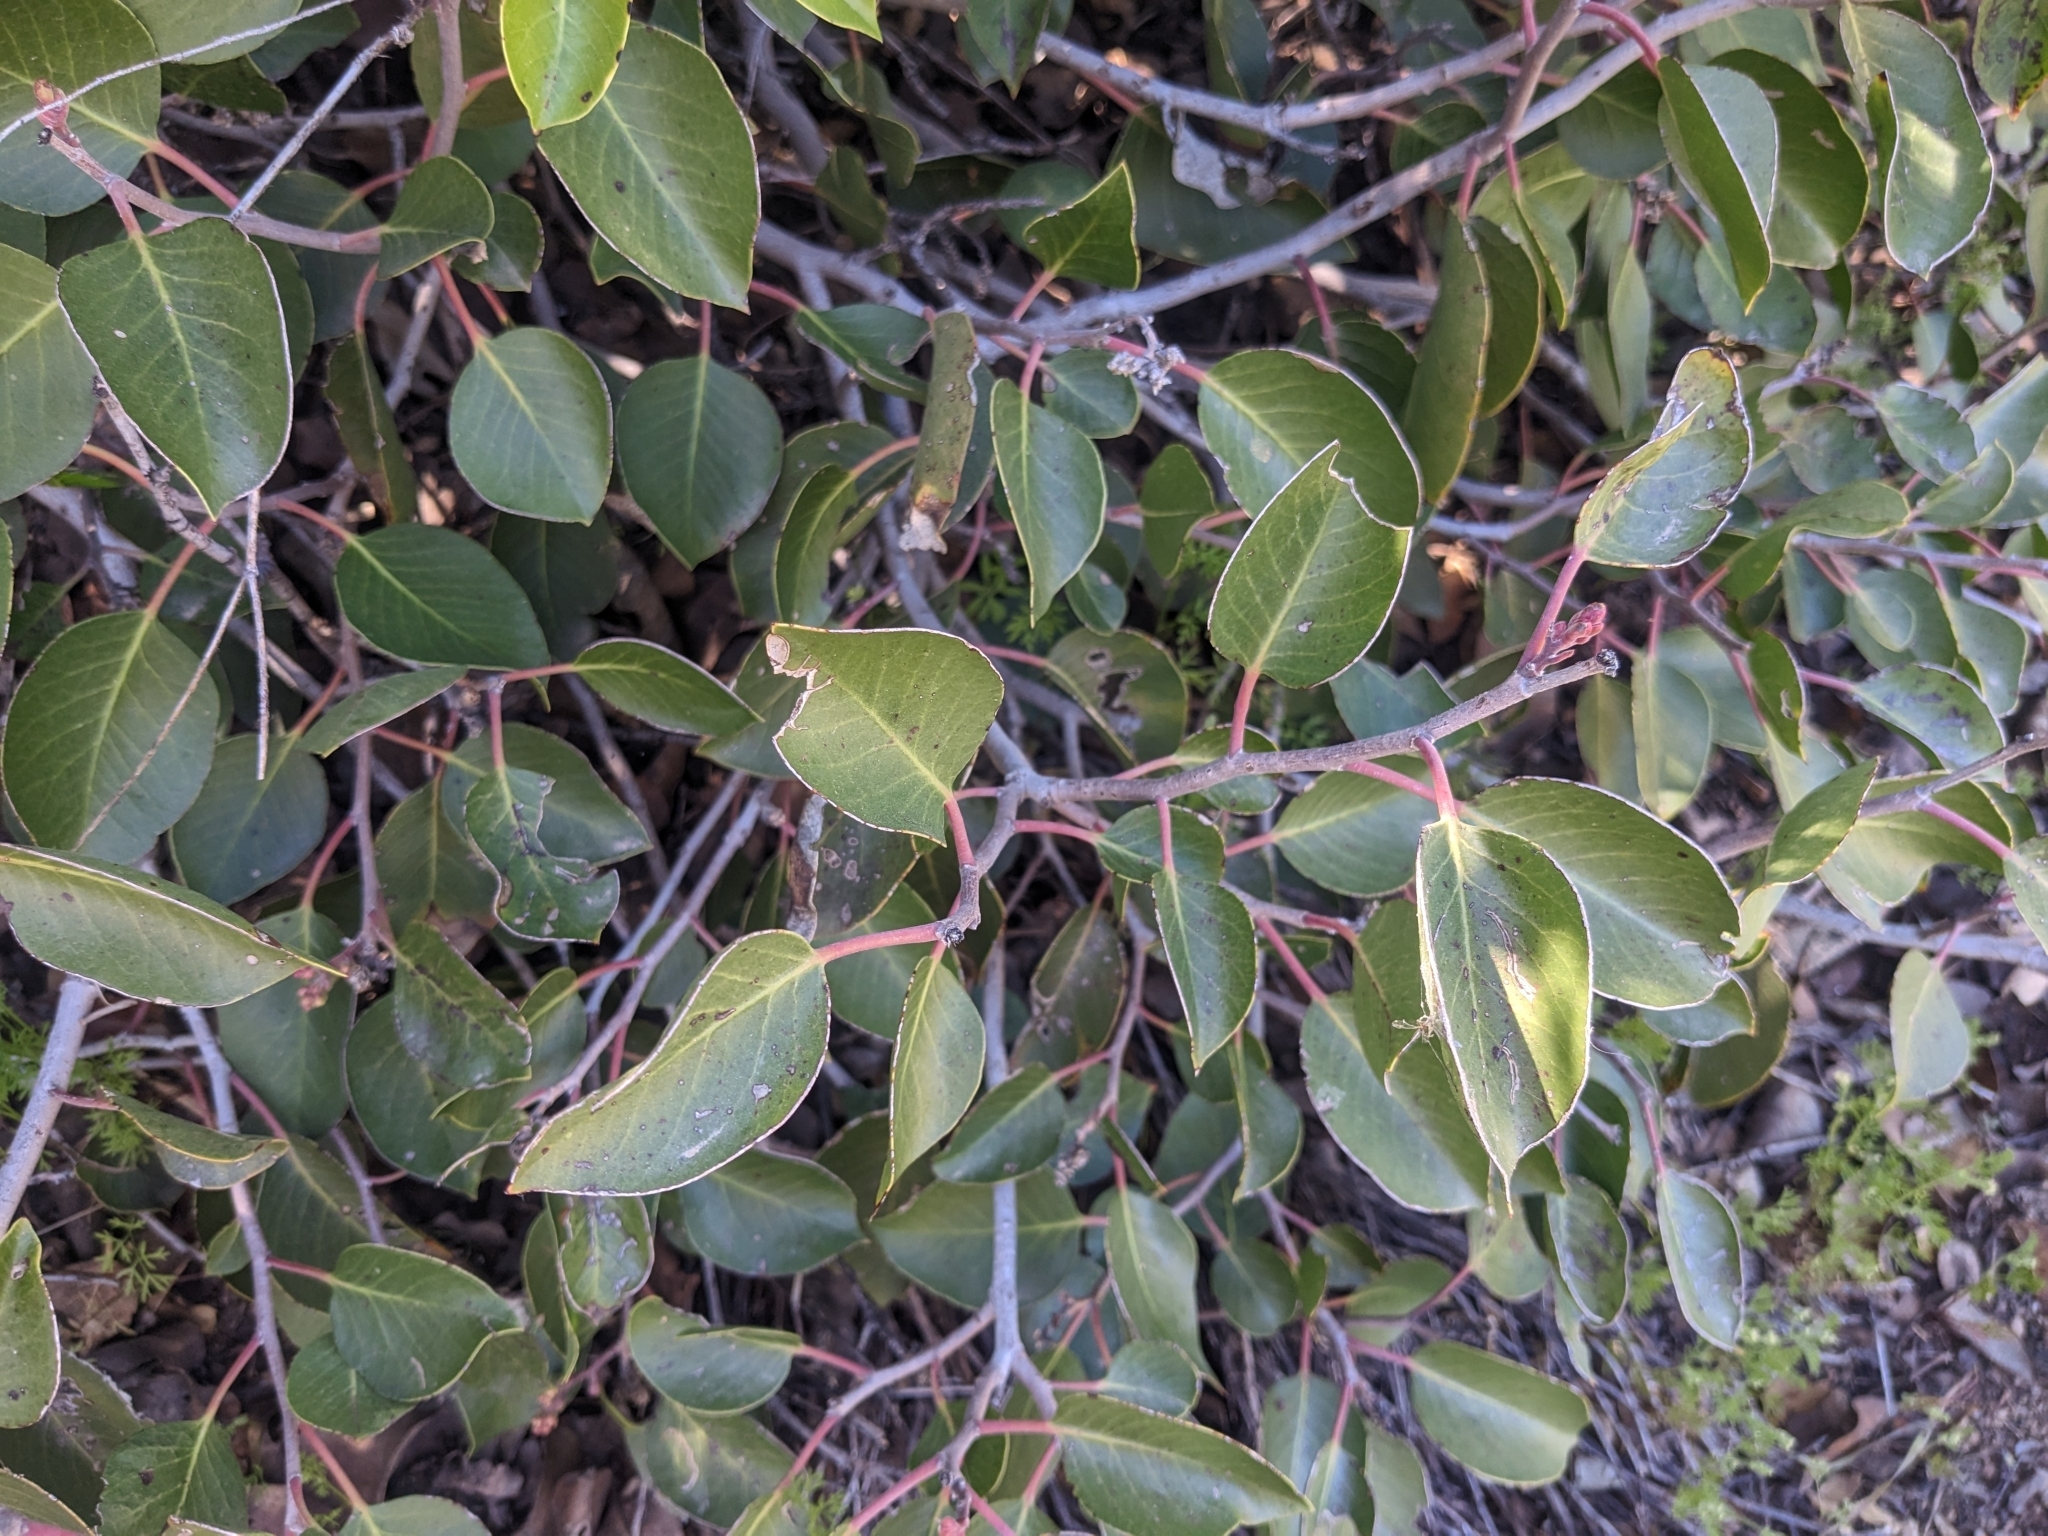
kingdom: Plantae
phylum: Tracheophyta
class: Magnoliopsida
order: Sapindales
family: Anacardiaceae
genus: Rhus
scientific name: Rhus ovata
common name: Sugar sumac
